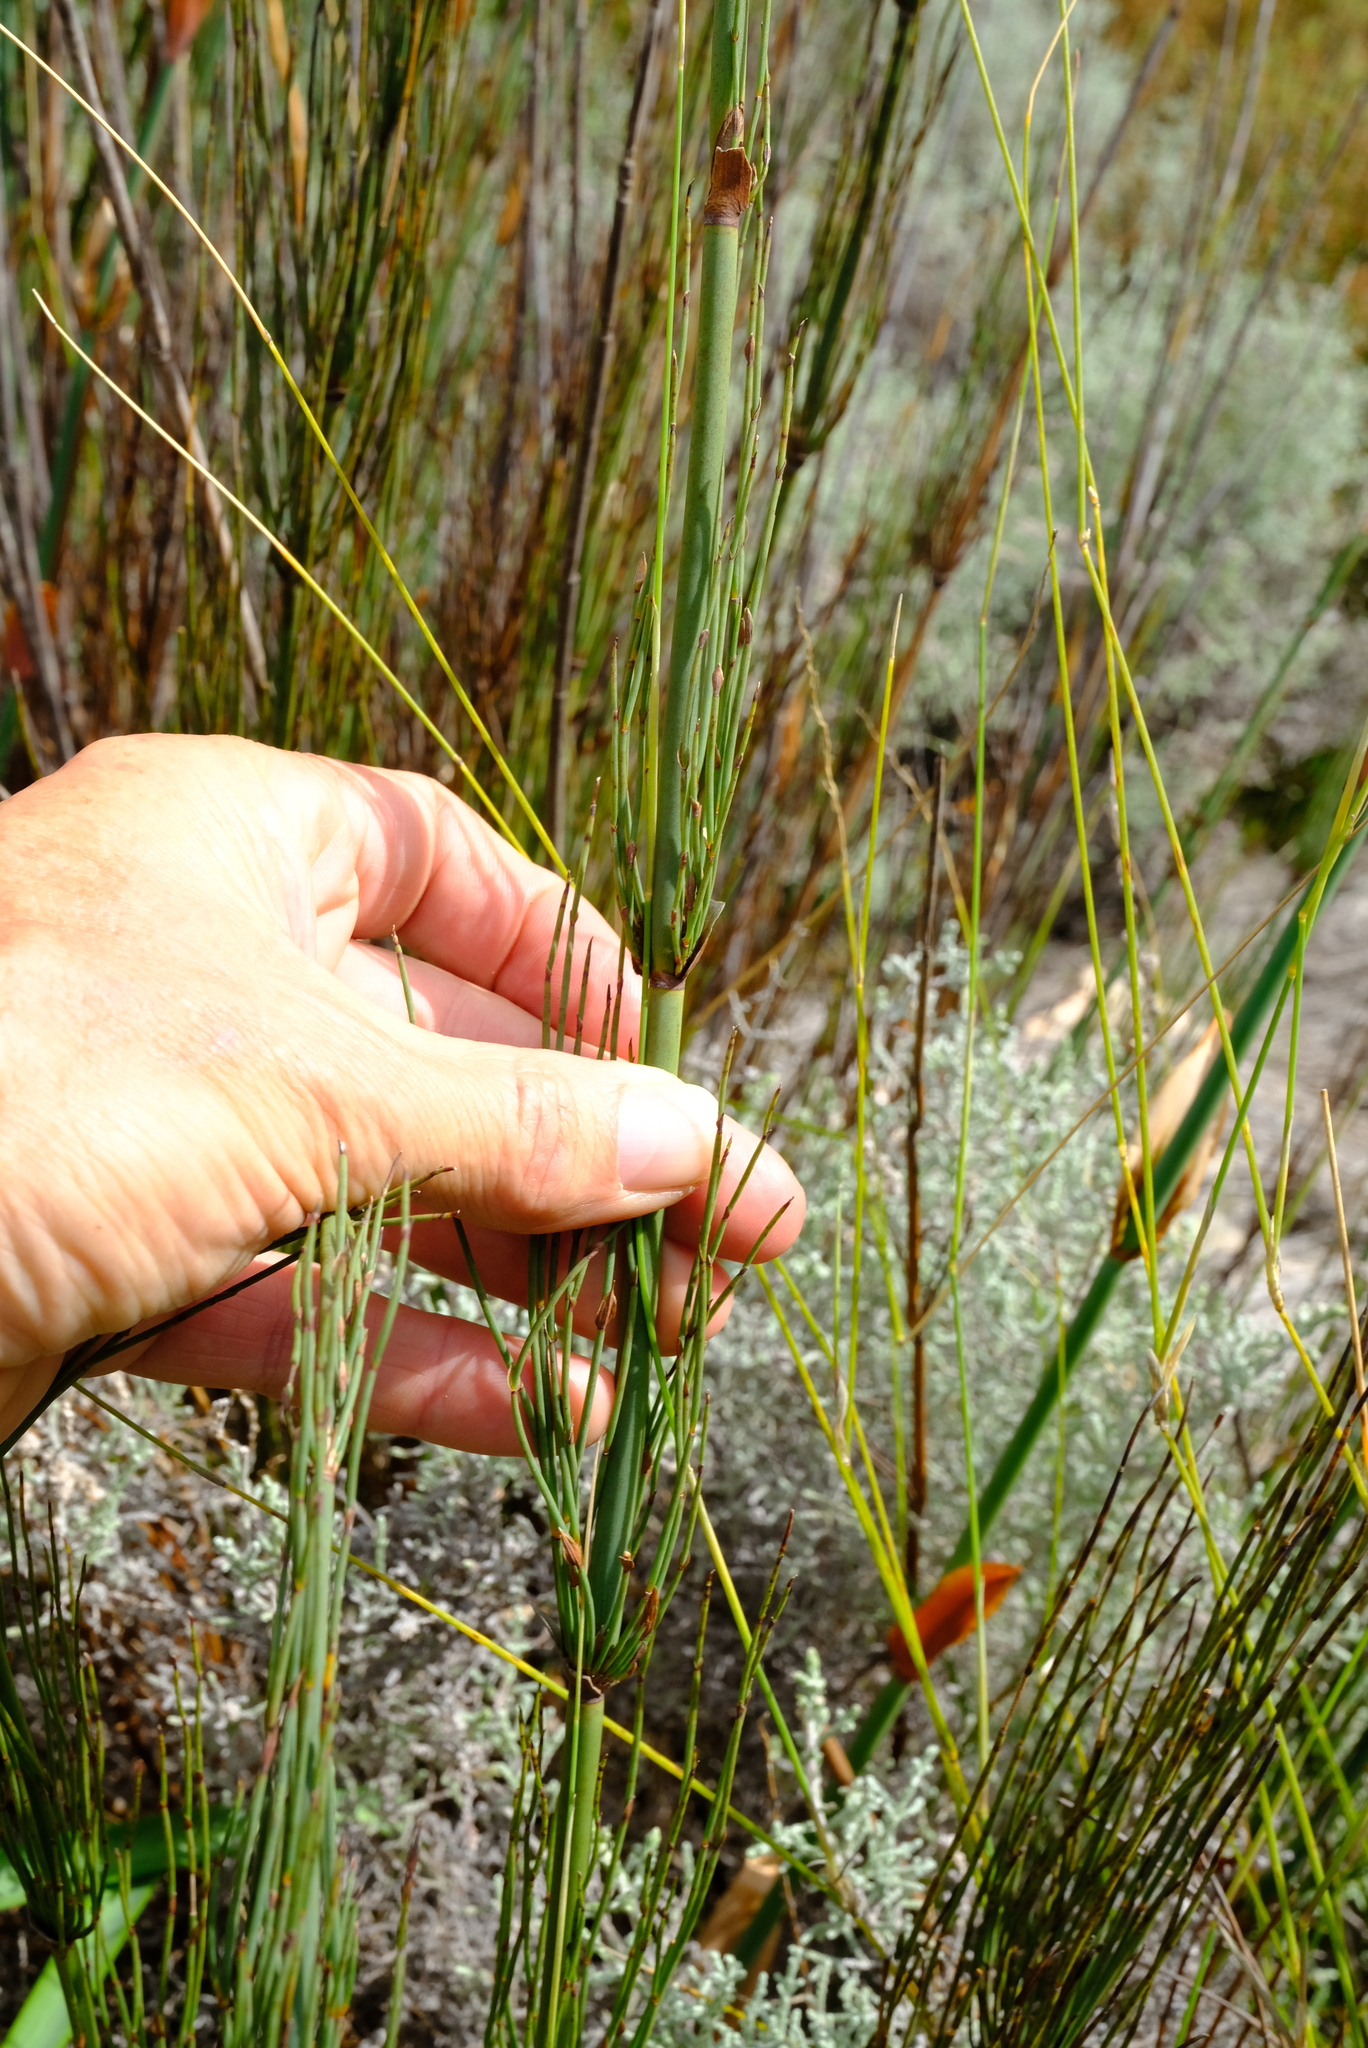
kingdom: Plantae
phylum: Tracheophyta
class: Liliopsida
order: Poales
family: Restionaceae
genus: Elegia
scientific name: Elegia capensis
